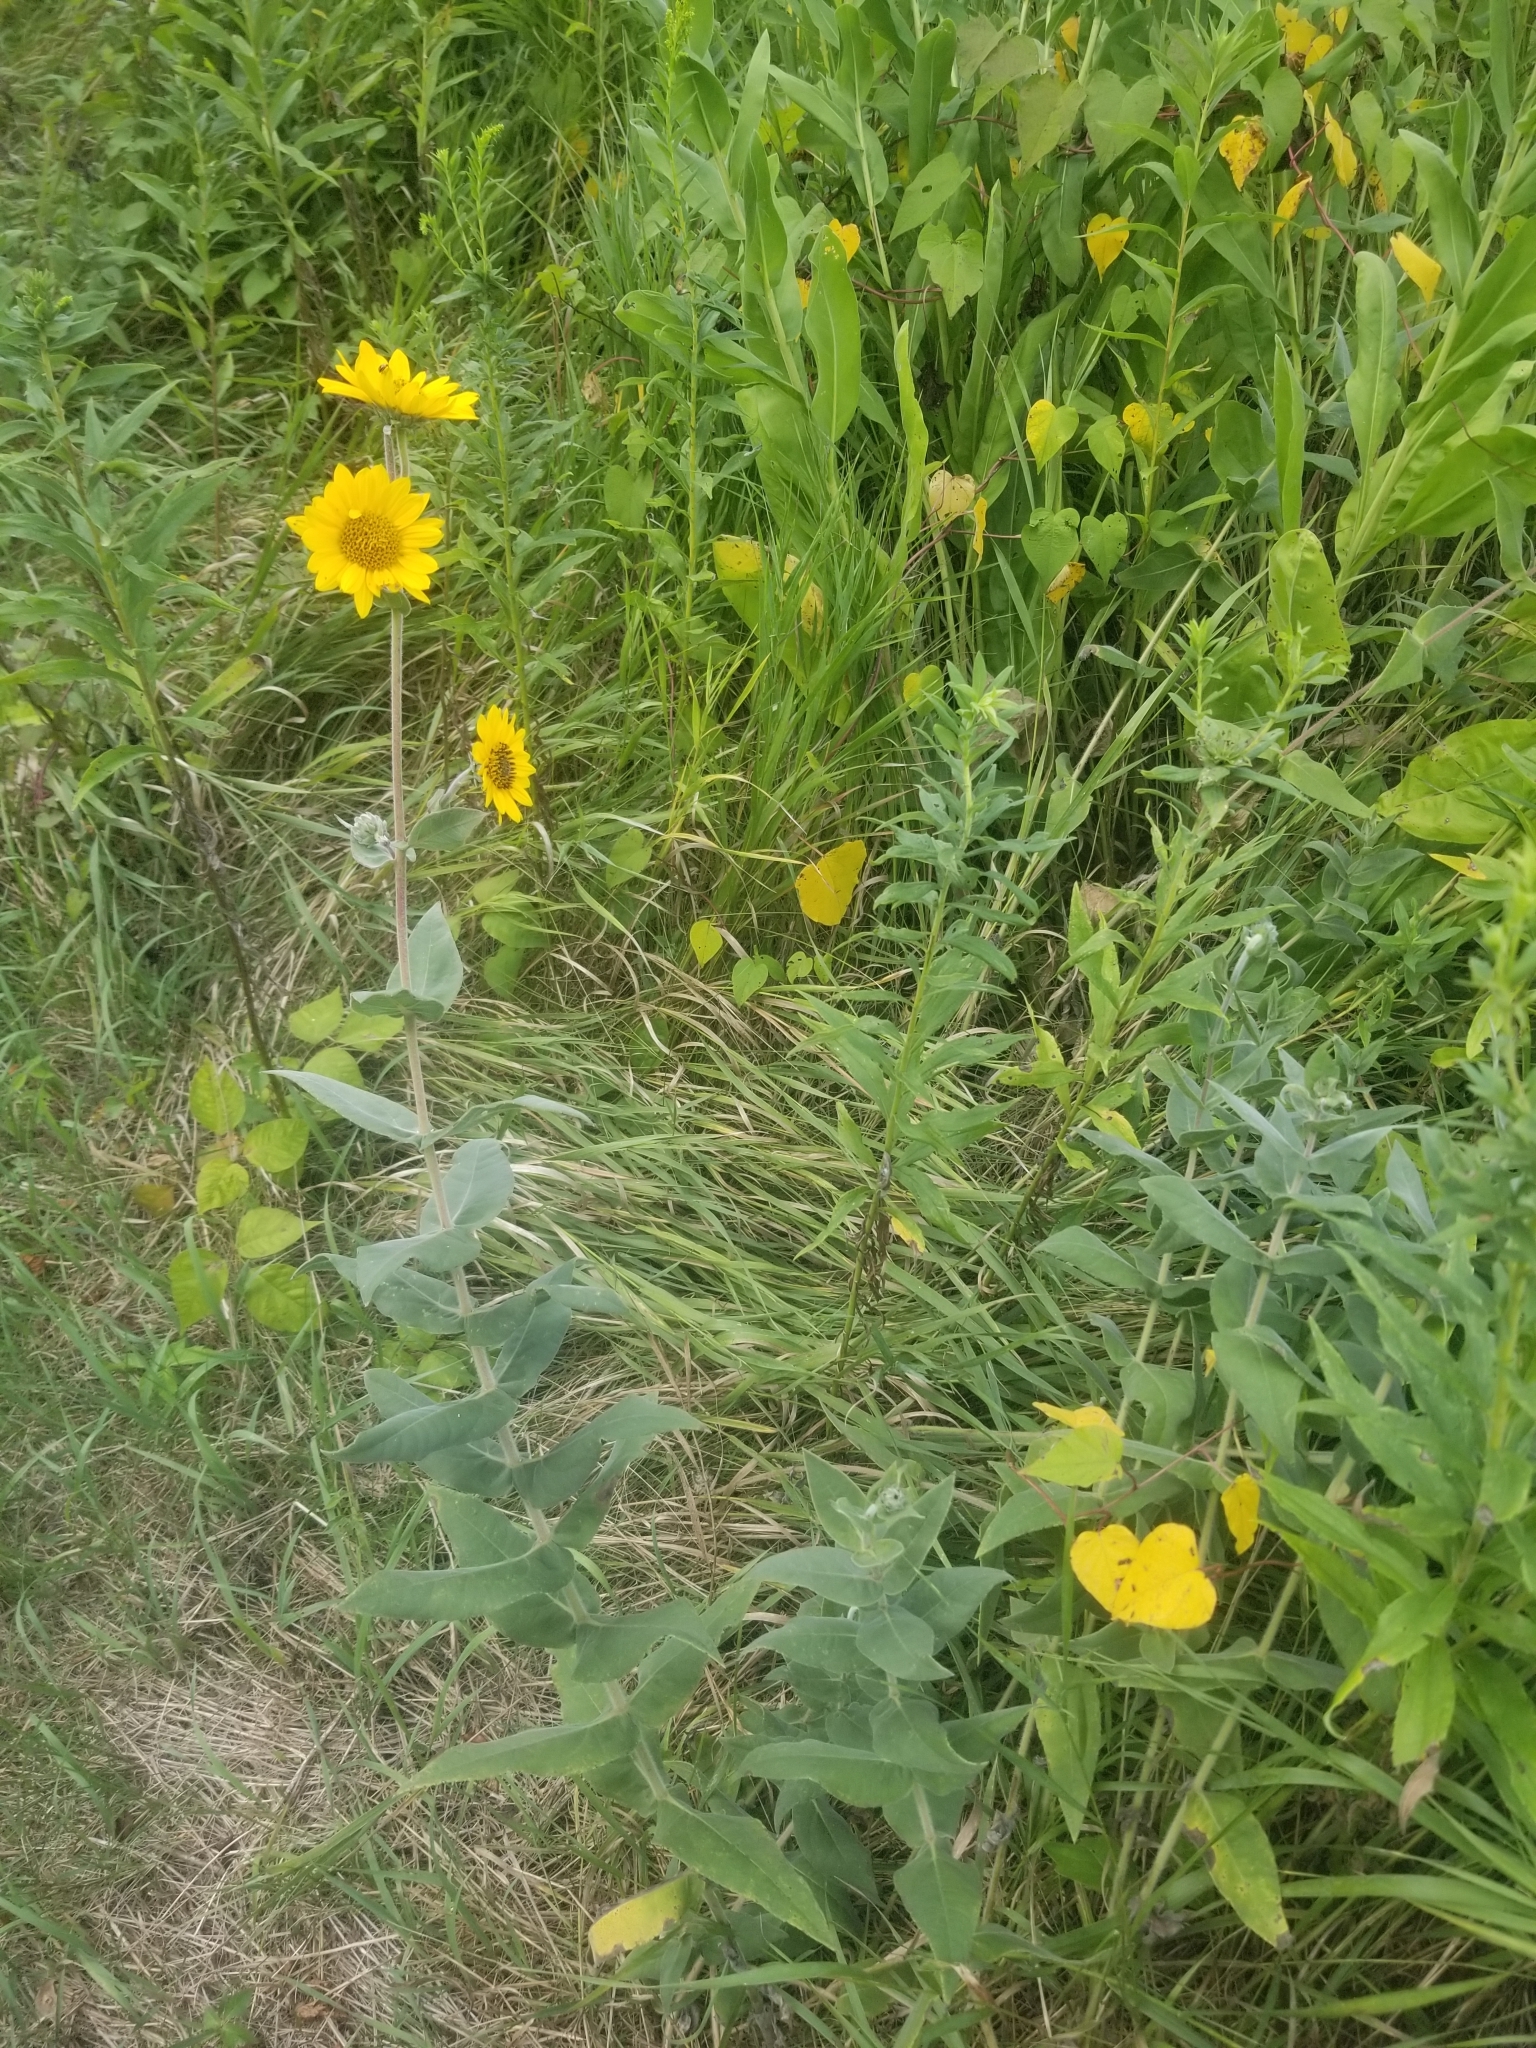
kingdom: Plantae
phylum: Tracheophyta
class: Magnoliopsida
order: Asterales
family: Asteraceae
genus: Helianthus
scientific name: Helianthus mollis
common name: Ashy sunflower
